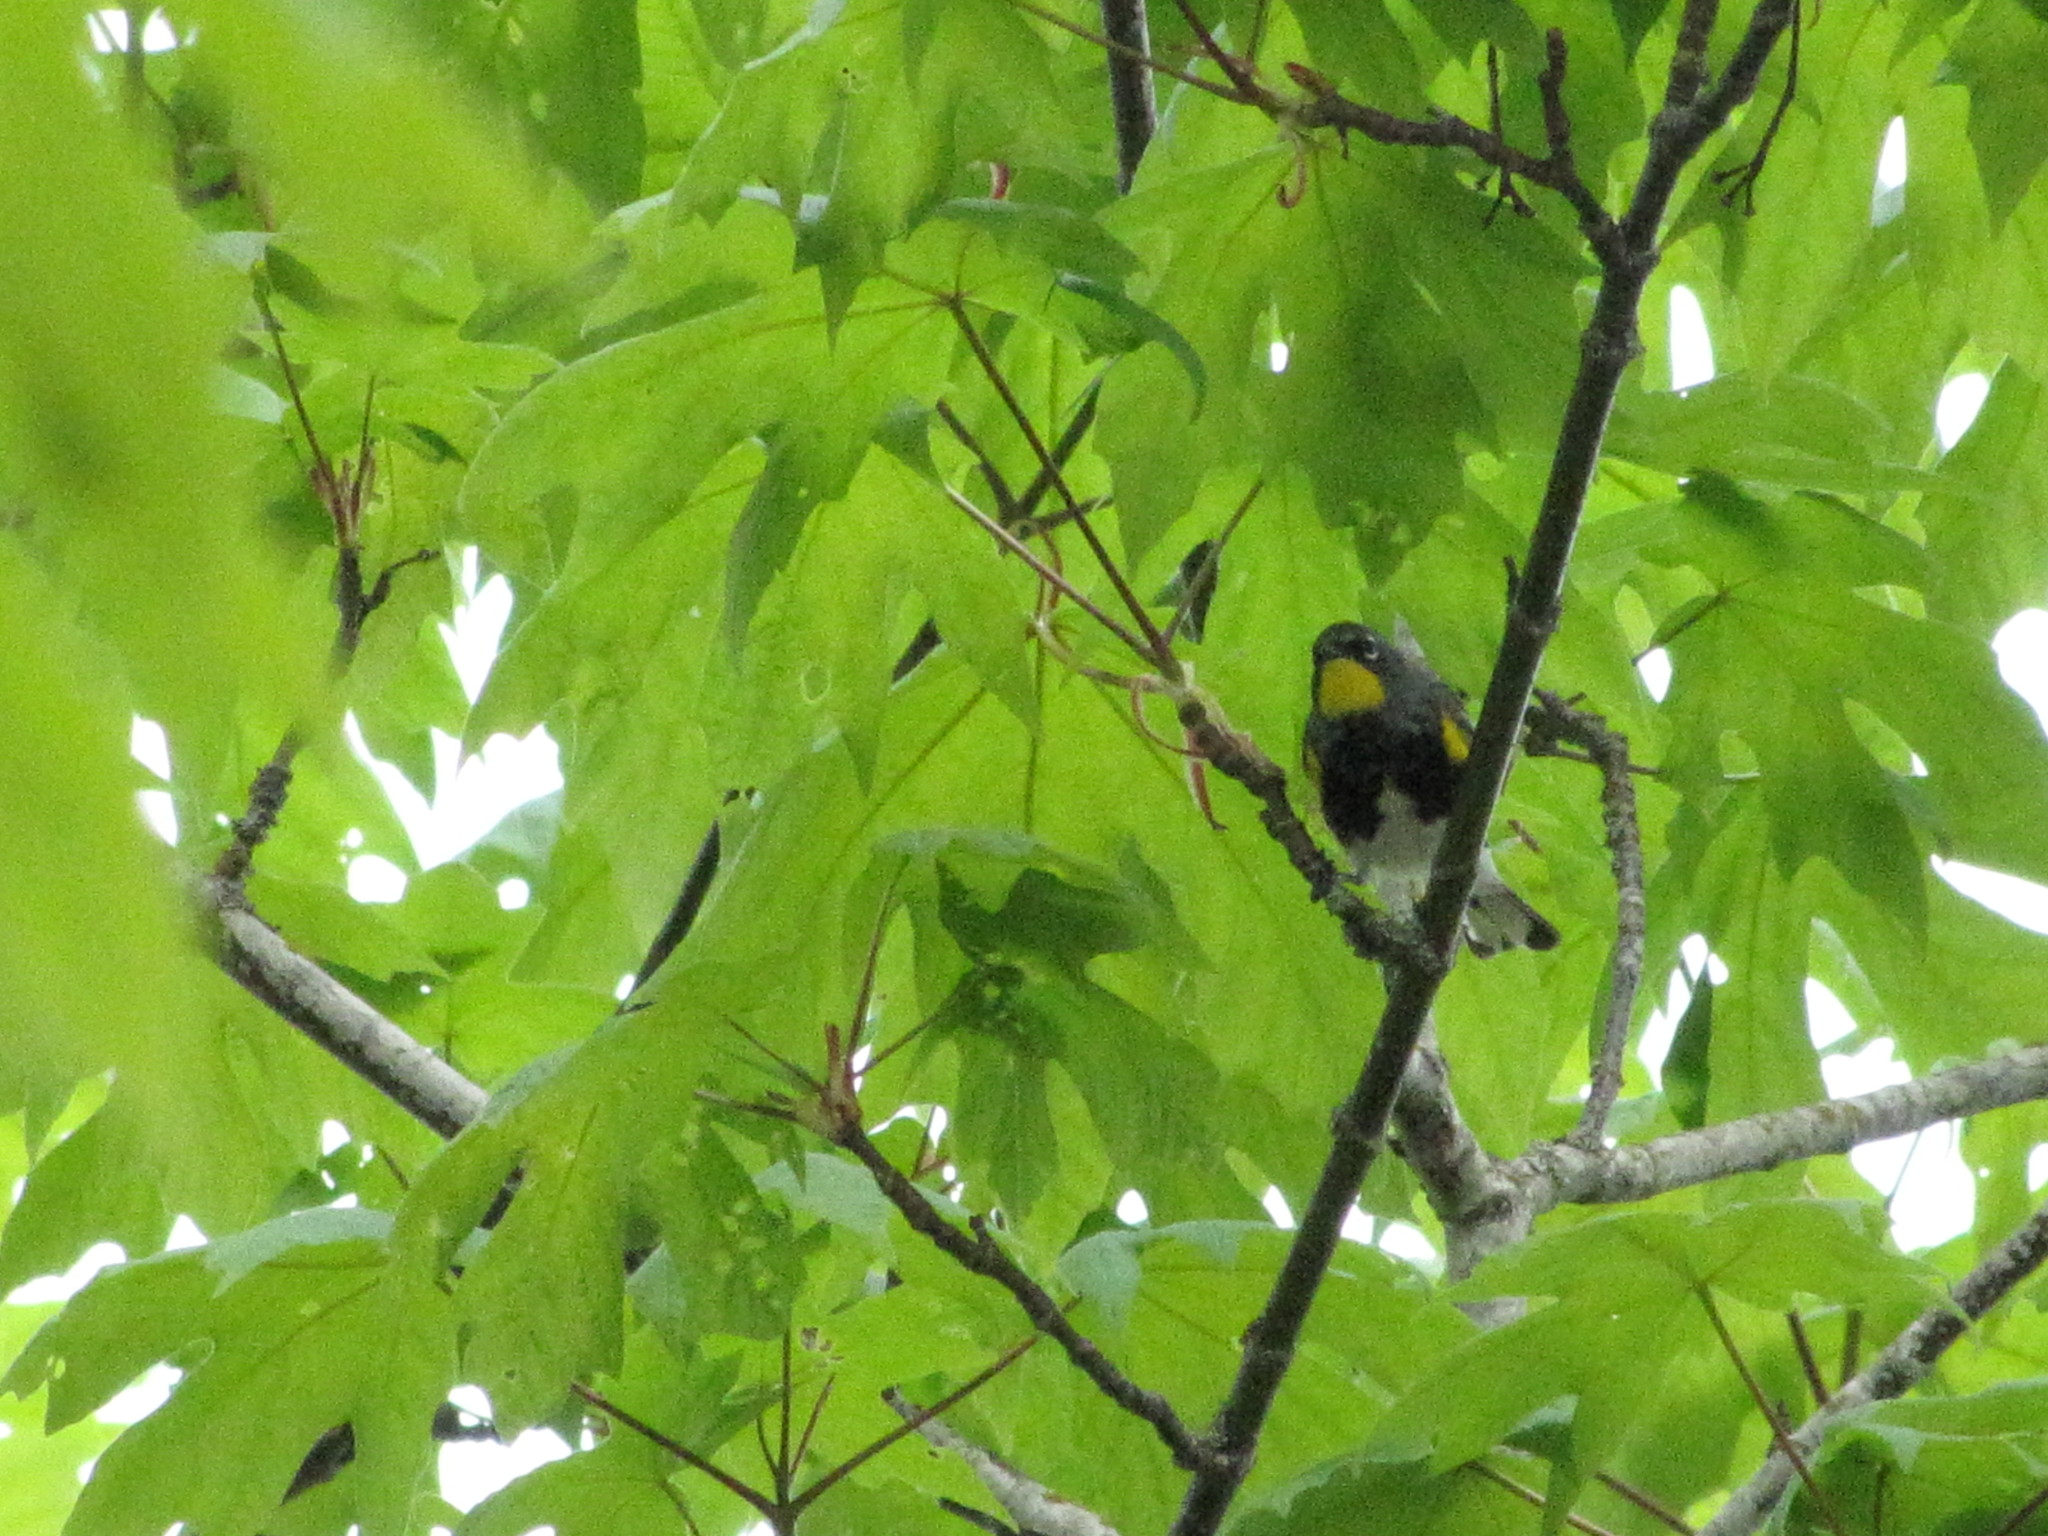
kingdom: Animalia
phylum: Chordata
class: Aves
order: Passeriformes
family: Parulidae
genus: Setophaga
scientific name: Setophaga auduboni
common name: Audubon's warbler
